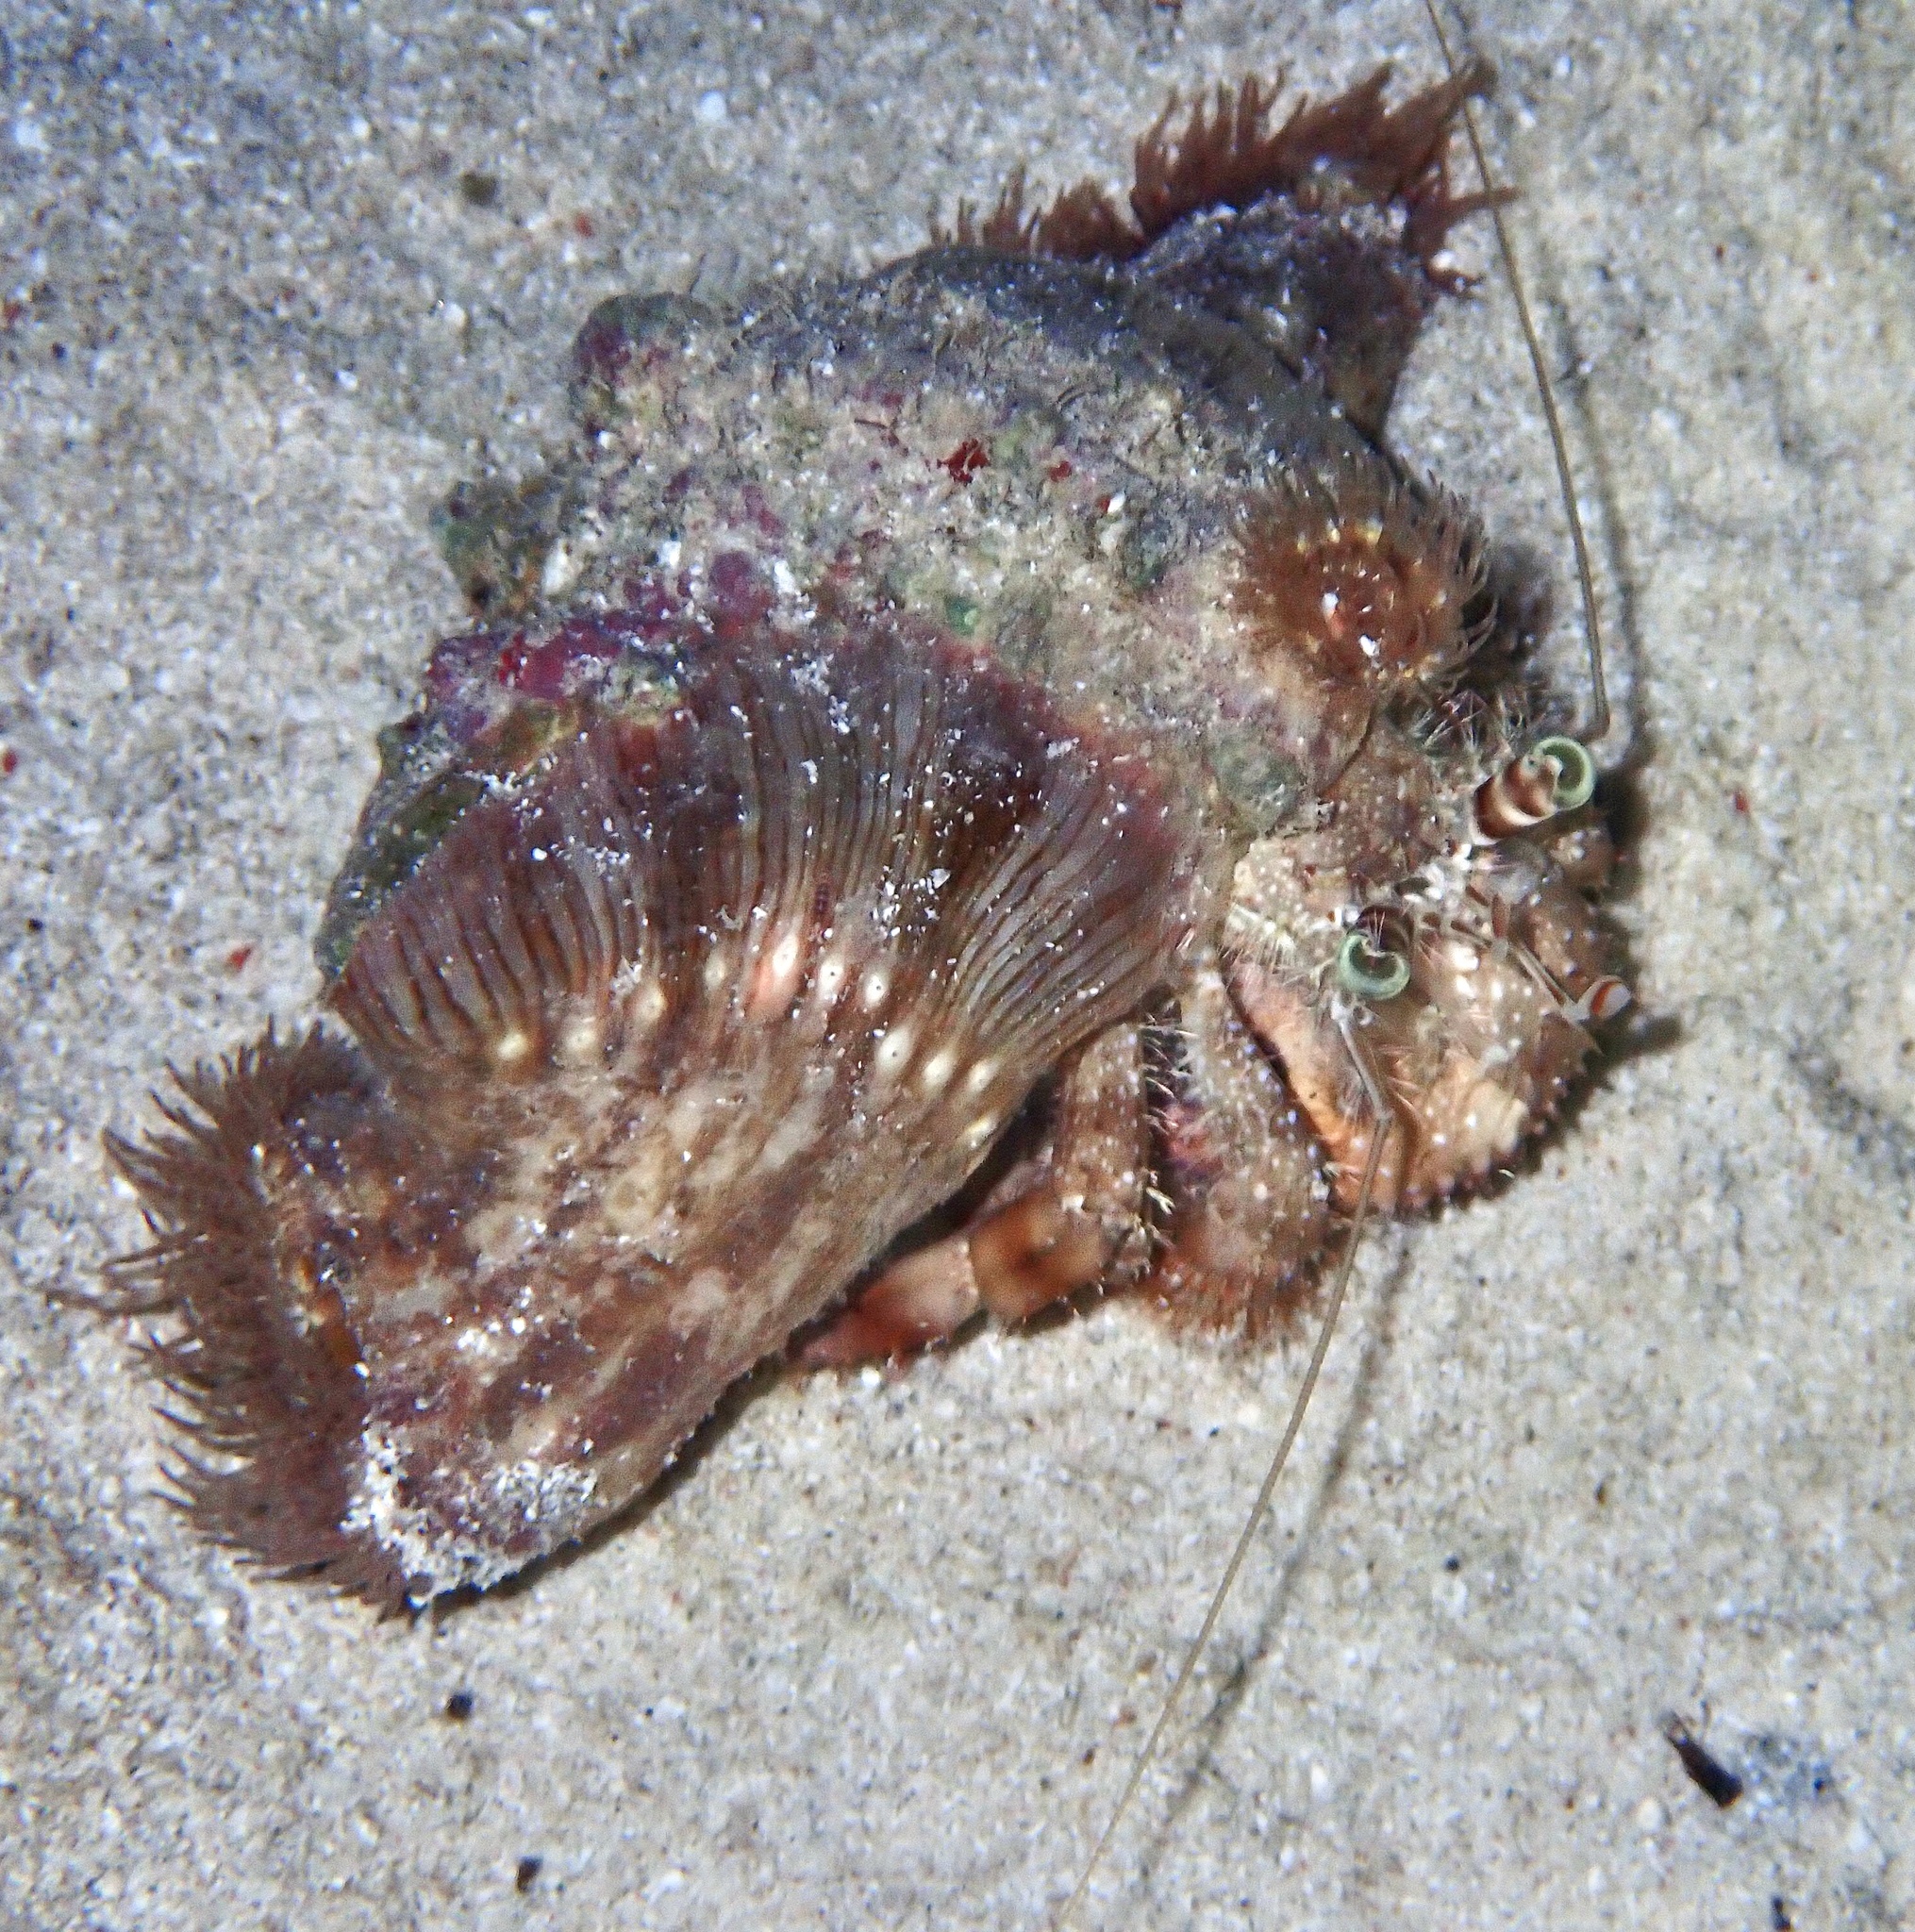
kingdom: Animalia
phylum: Arthropoda
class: Malacostraca
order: Decapoda
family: Diogenidae
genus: Dardanus
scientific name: Dardanus tinctor
